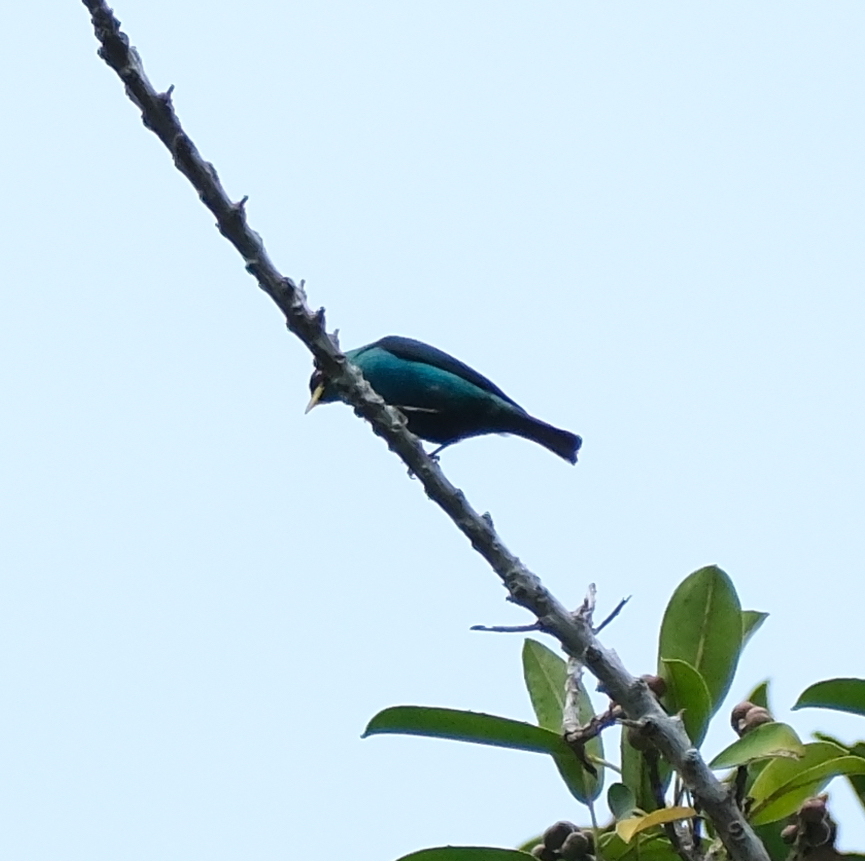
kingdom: Animalia
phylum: Chordata
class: Aves
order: Passeriformes
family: Thraupidae
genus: Chlorophanes
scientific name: Chlorophanes spiza
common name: Green honeycreeper
